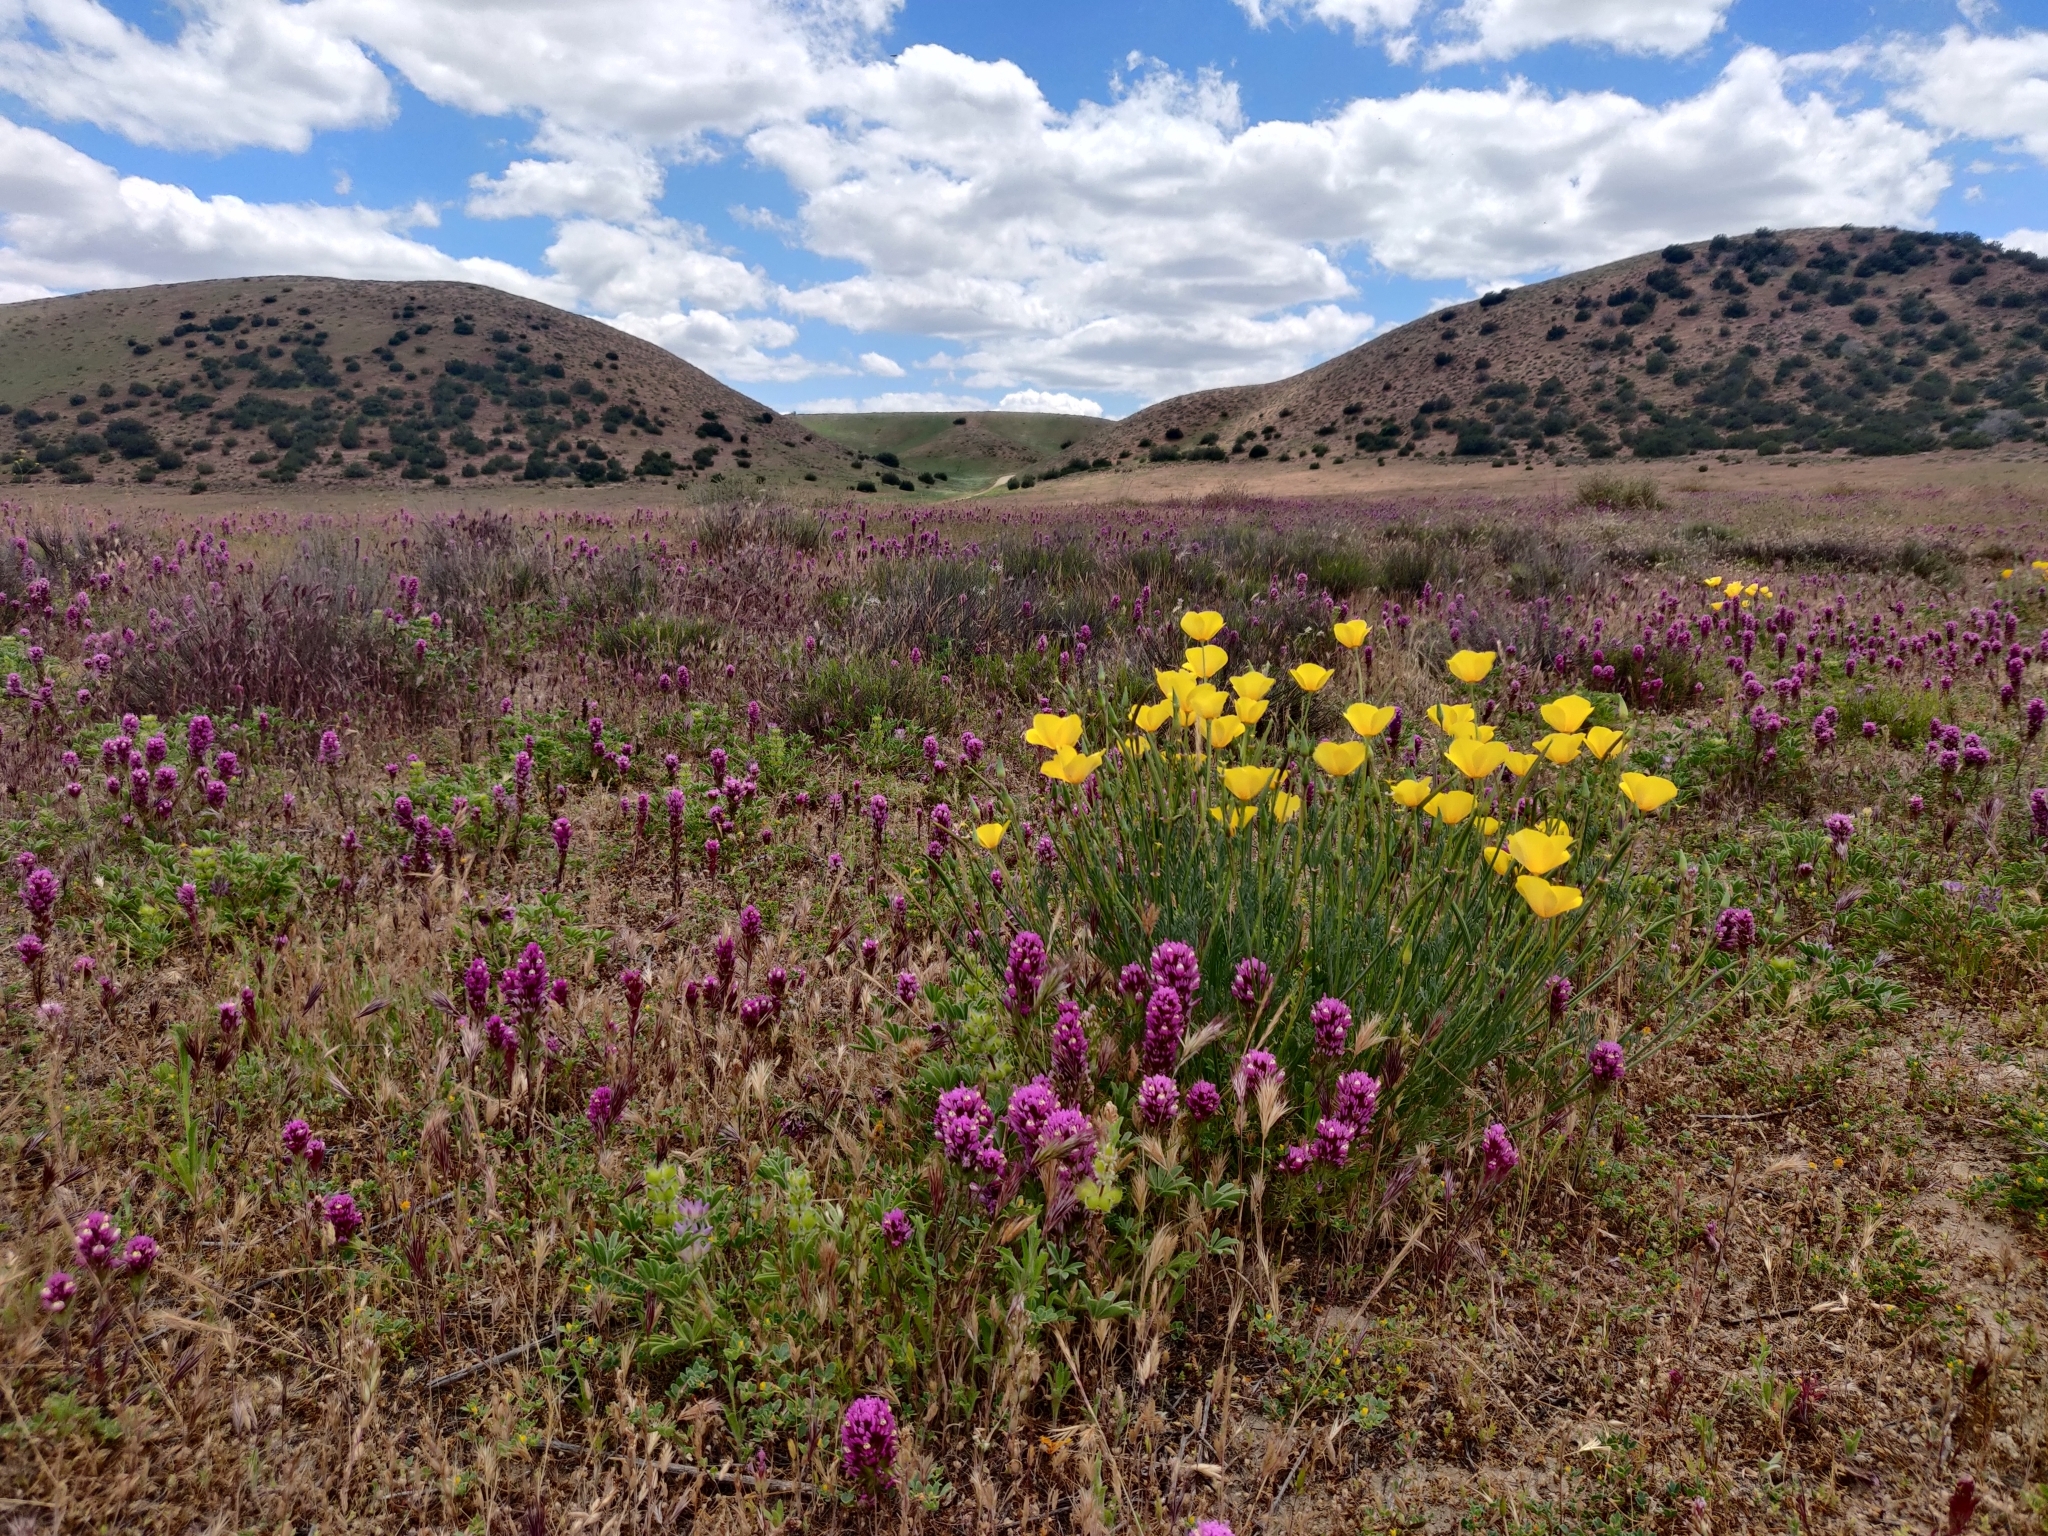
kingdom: Plantae
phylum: Tracheophyta
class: Magnoliopsida
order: Ranunculales
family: Papaveraceae
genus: Eschscholzia
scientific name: Eschscholzia californica
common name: California poppy
